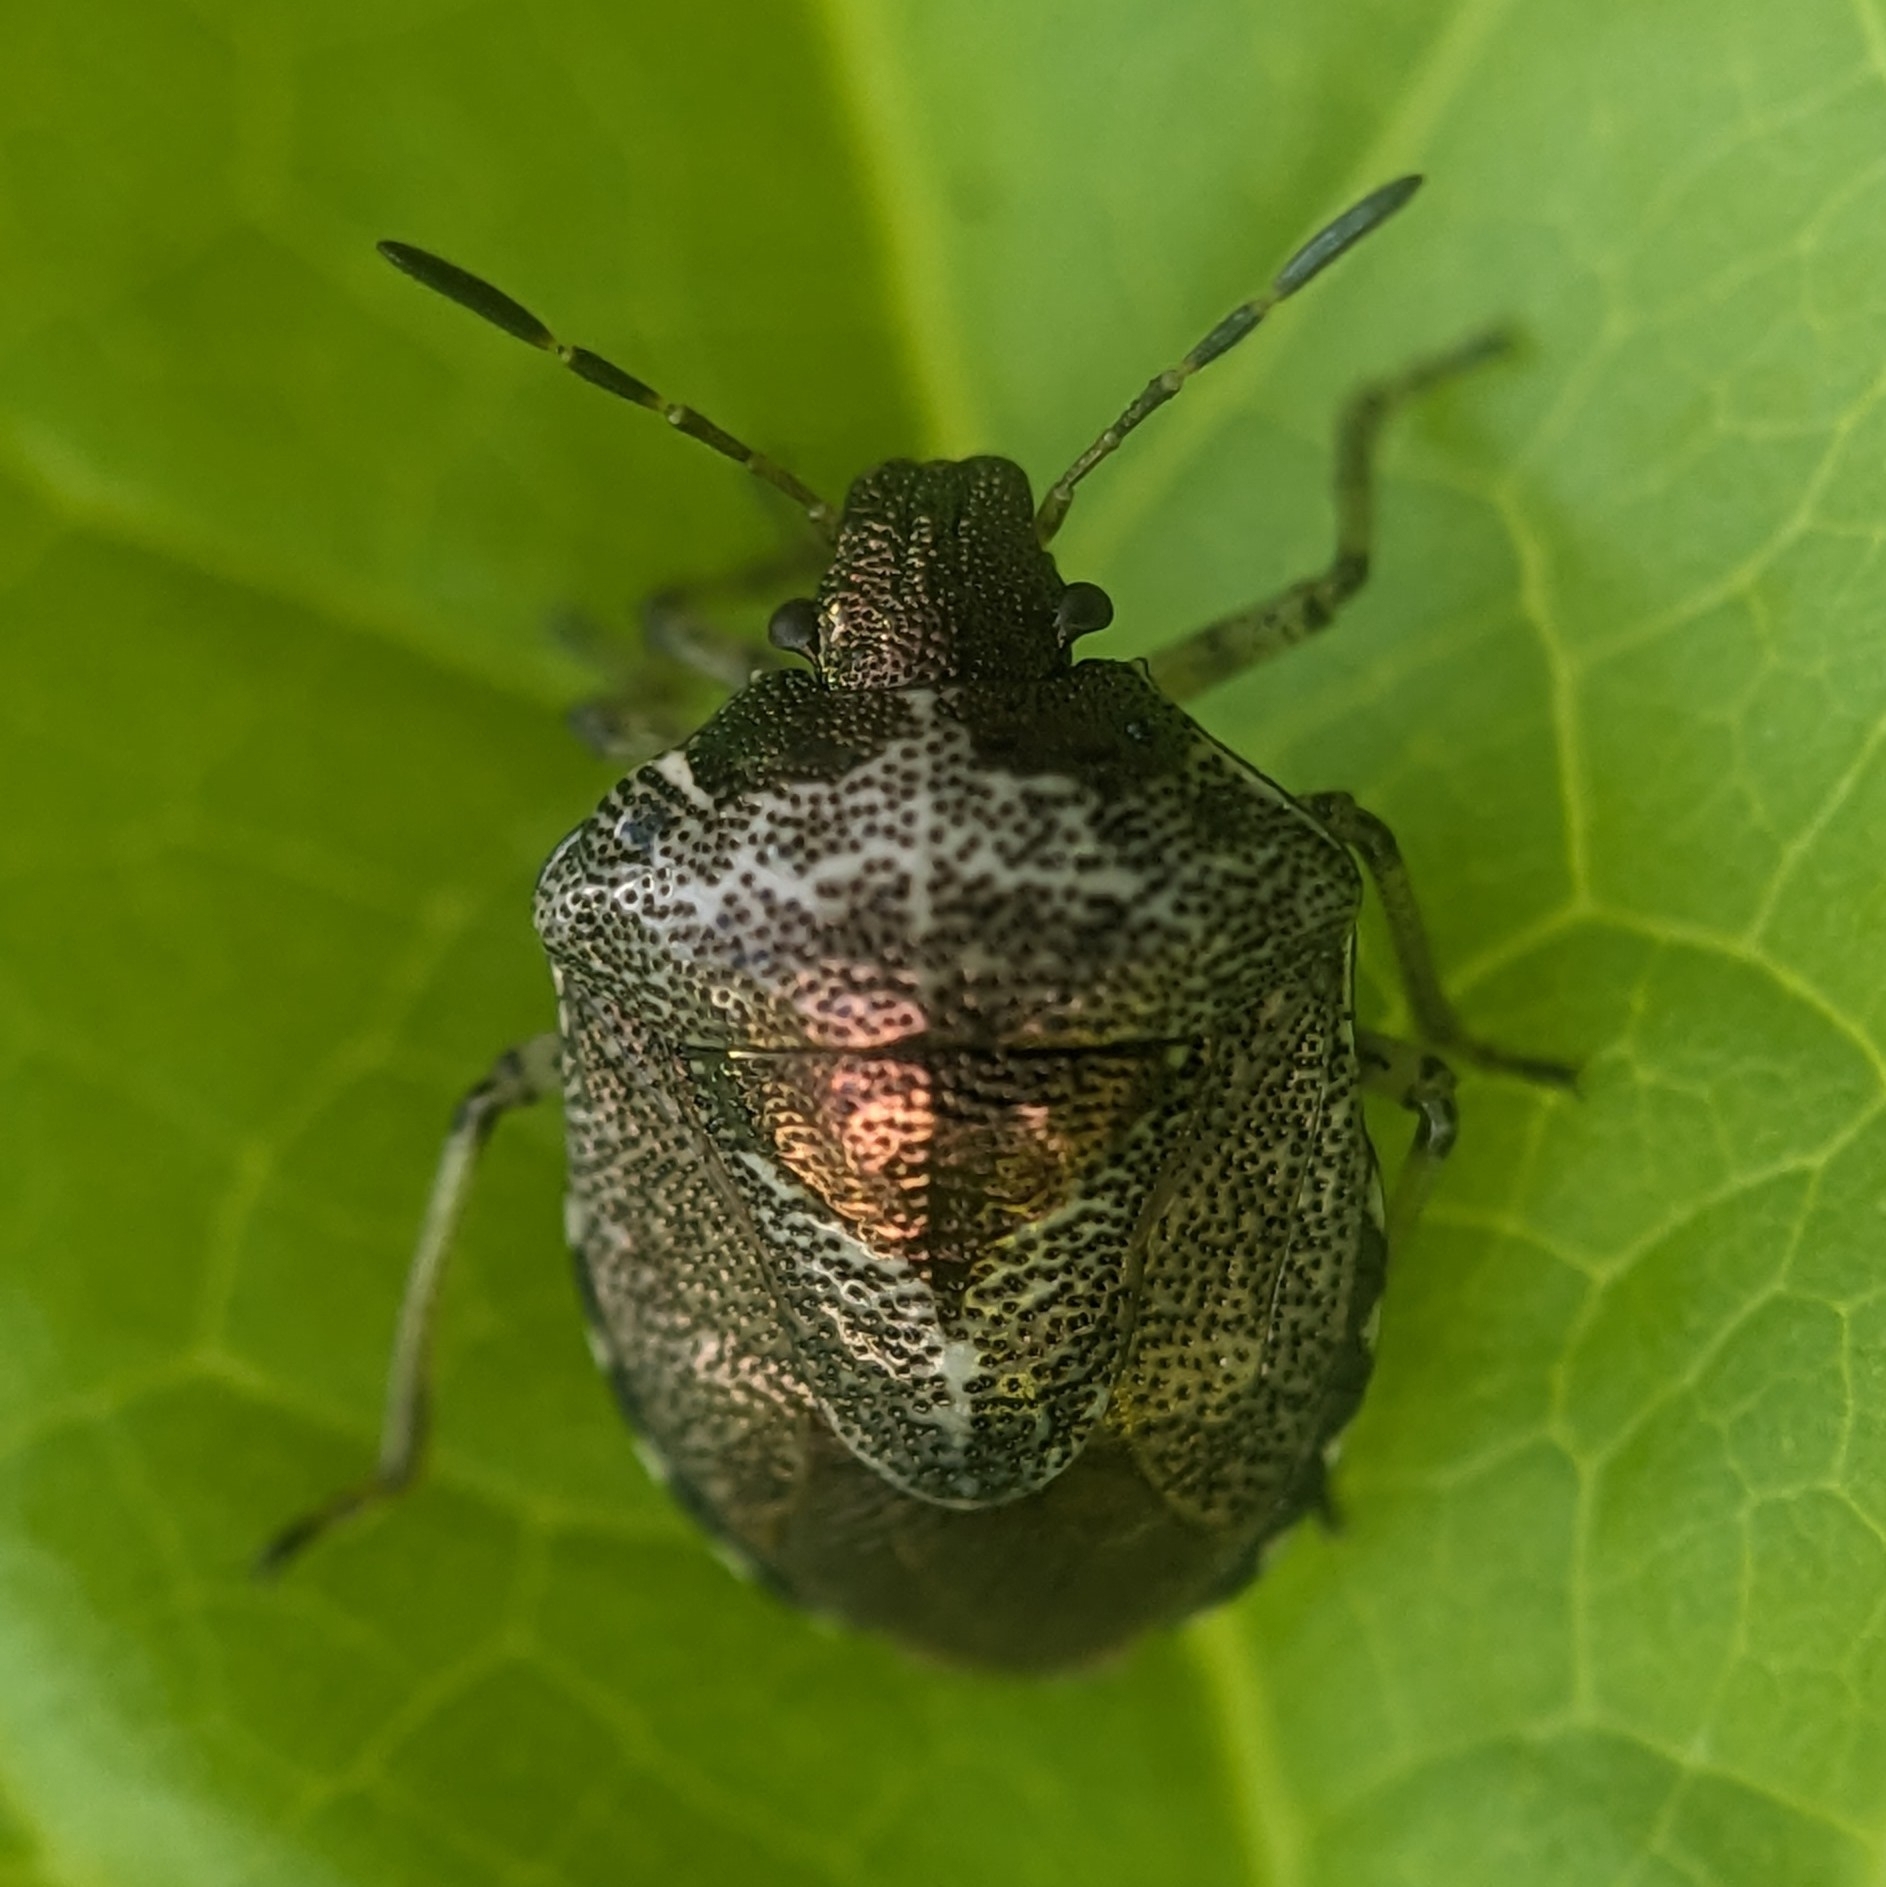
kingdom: Animalia
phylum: Arthropoda
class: Insecta
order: Hemiptera
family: Pentatomidae
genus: Eysarcoris
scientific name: Eysarcoris venustissimus
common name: Woundwort shieldbug
